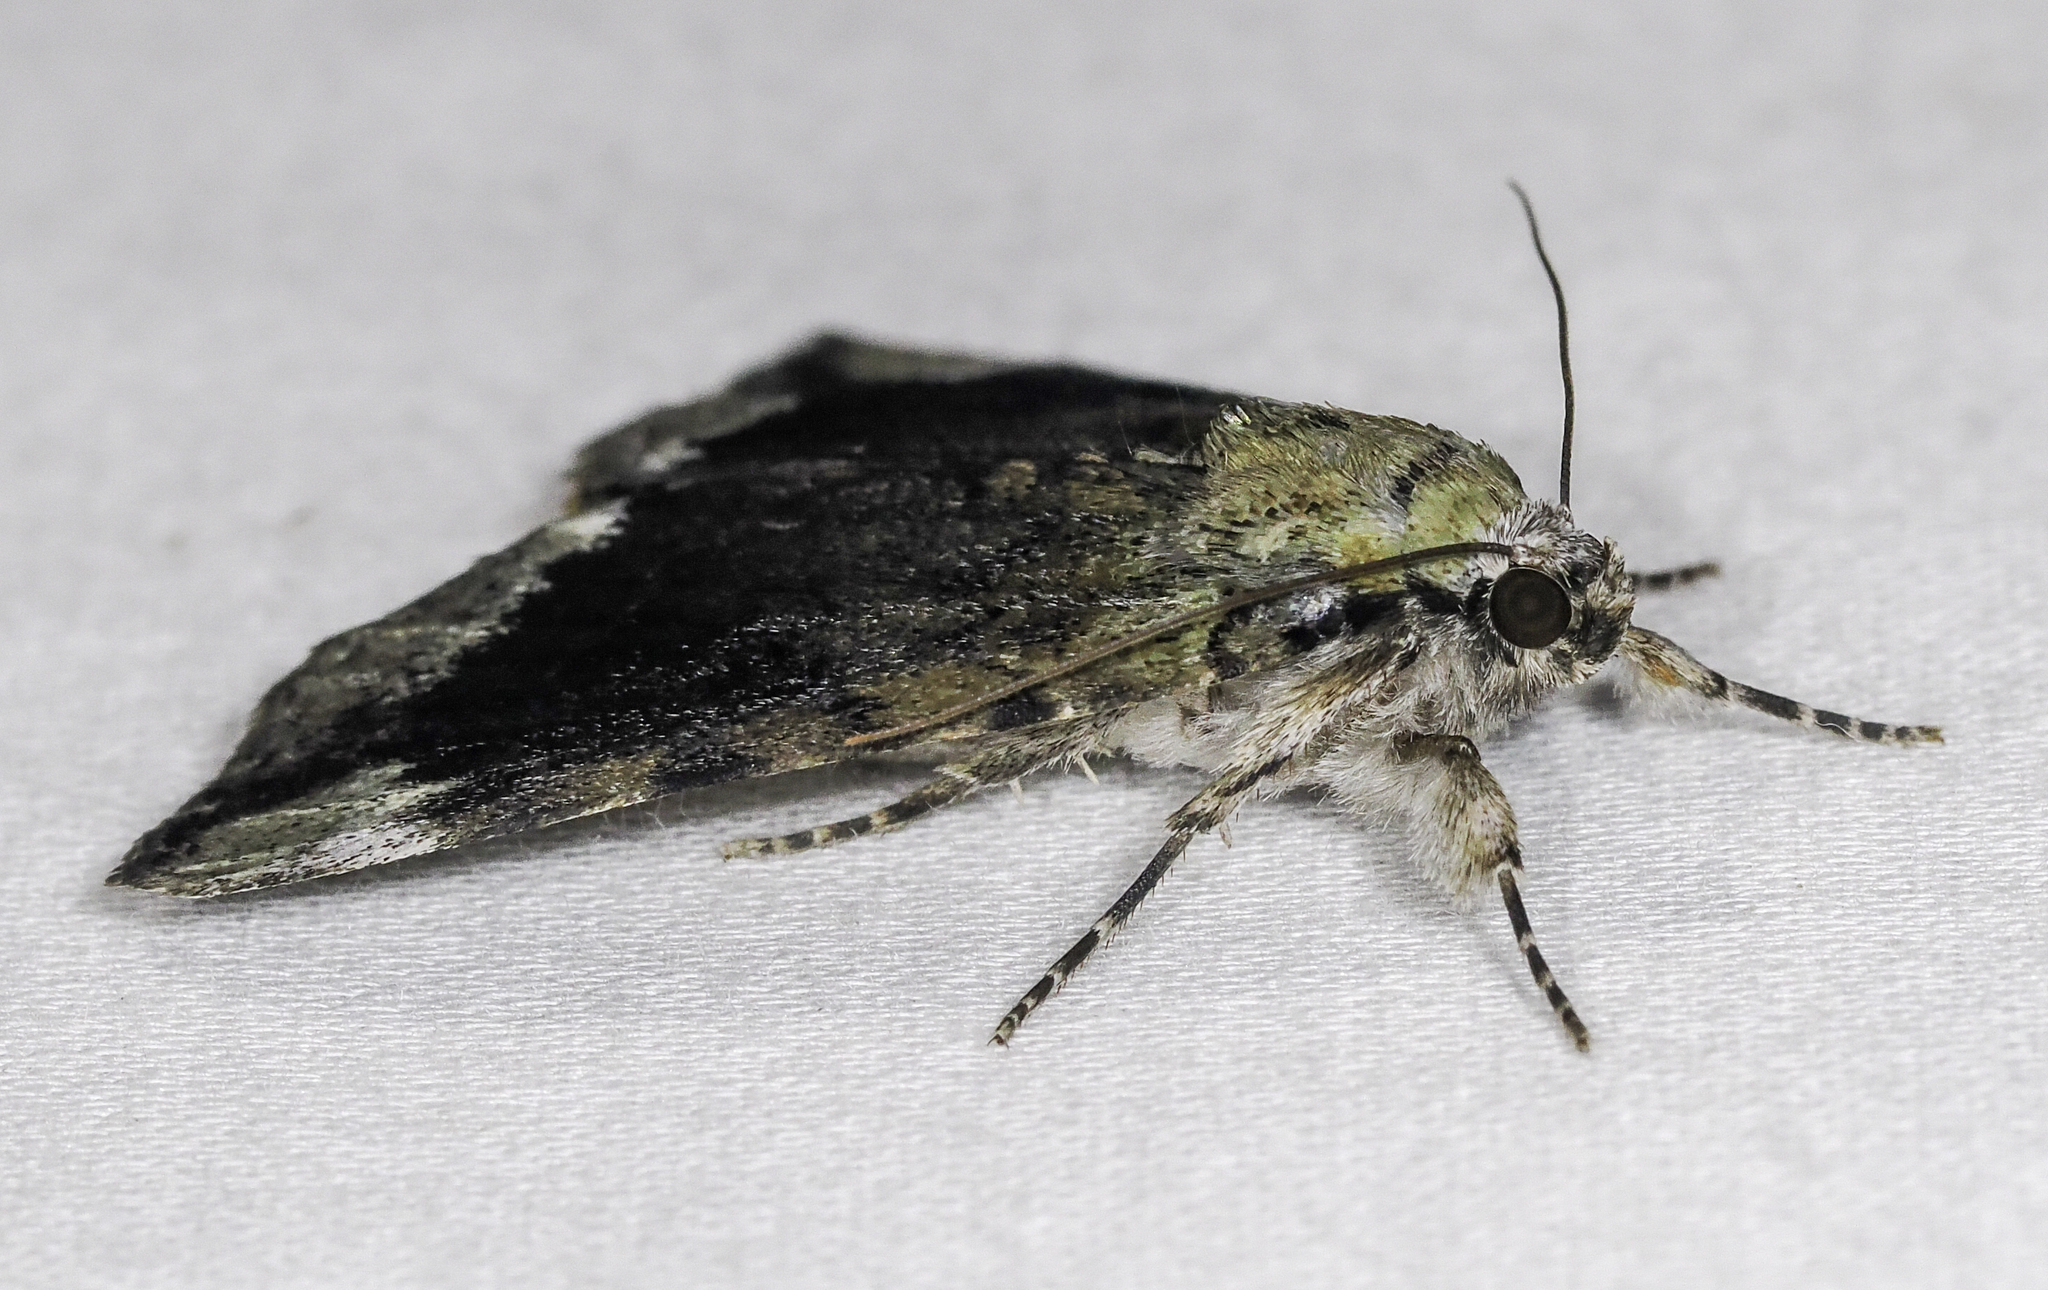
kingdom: Animalia
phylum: Arthropoda
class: Insecta
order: Lepidoptera
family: Erebidae
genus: Catocala
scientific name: Catocala micronympha
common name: Little nymph underwing
